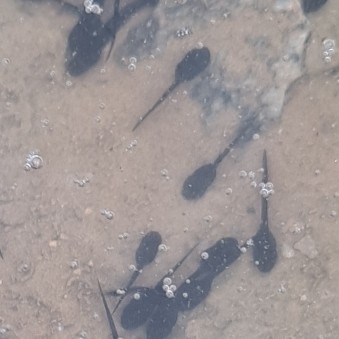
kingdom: Animalia
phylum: Chordata
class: Amphibia
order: Anura
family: Bufonidae
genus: Epidalea
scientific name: Epidalea calamita
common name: Natterjack toad
